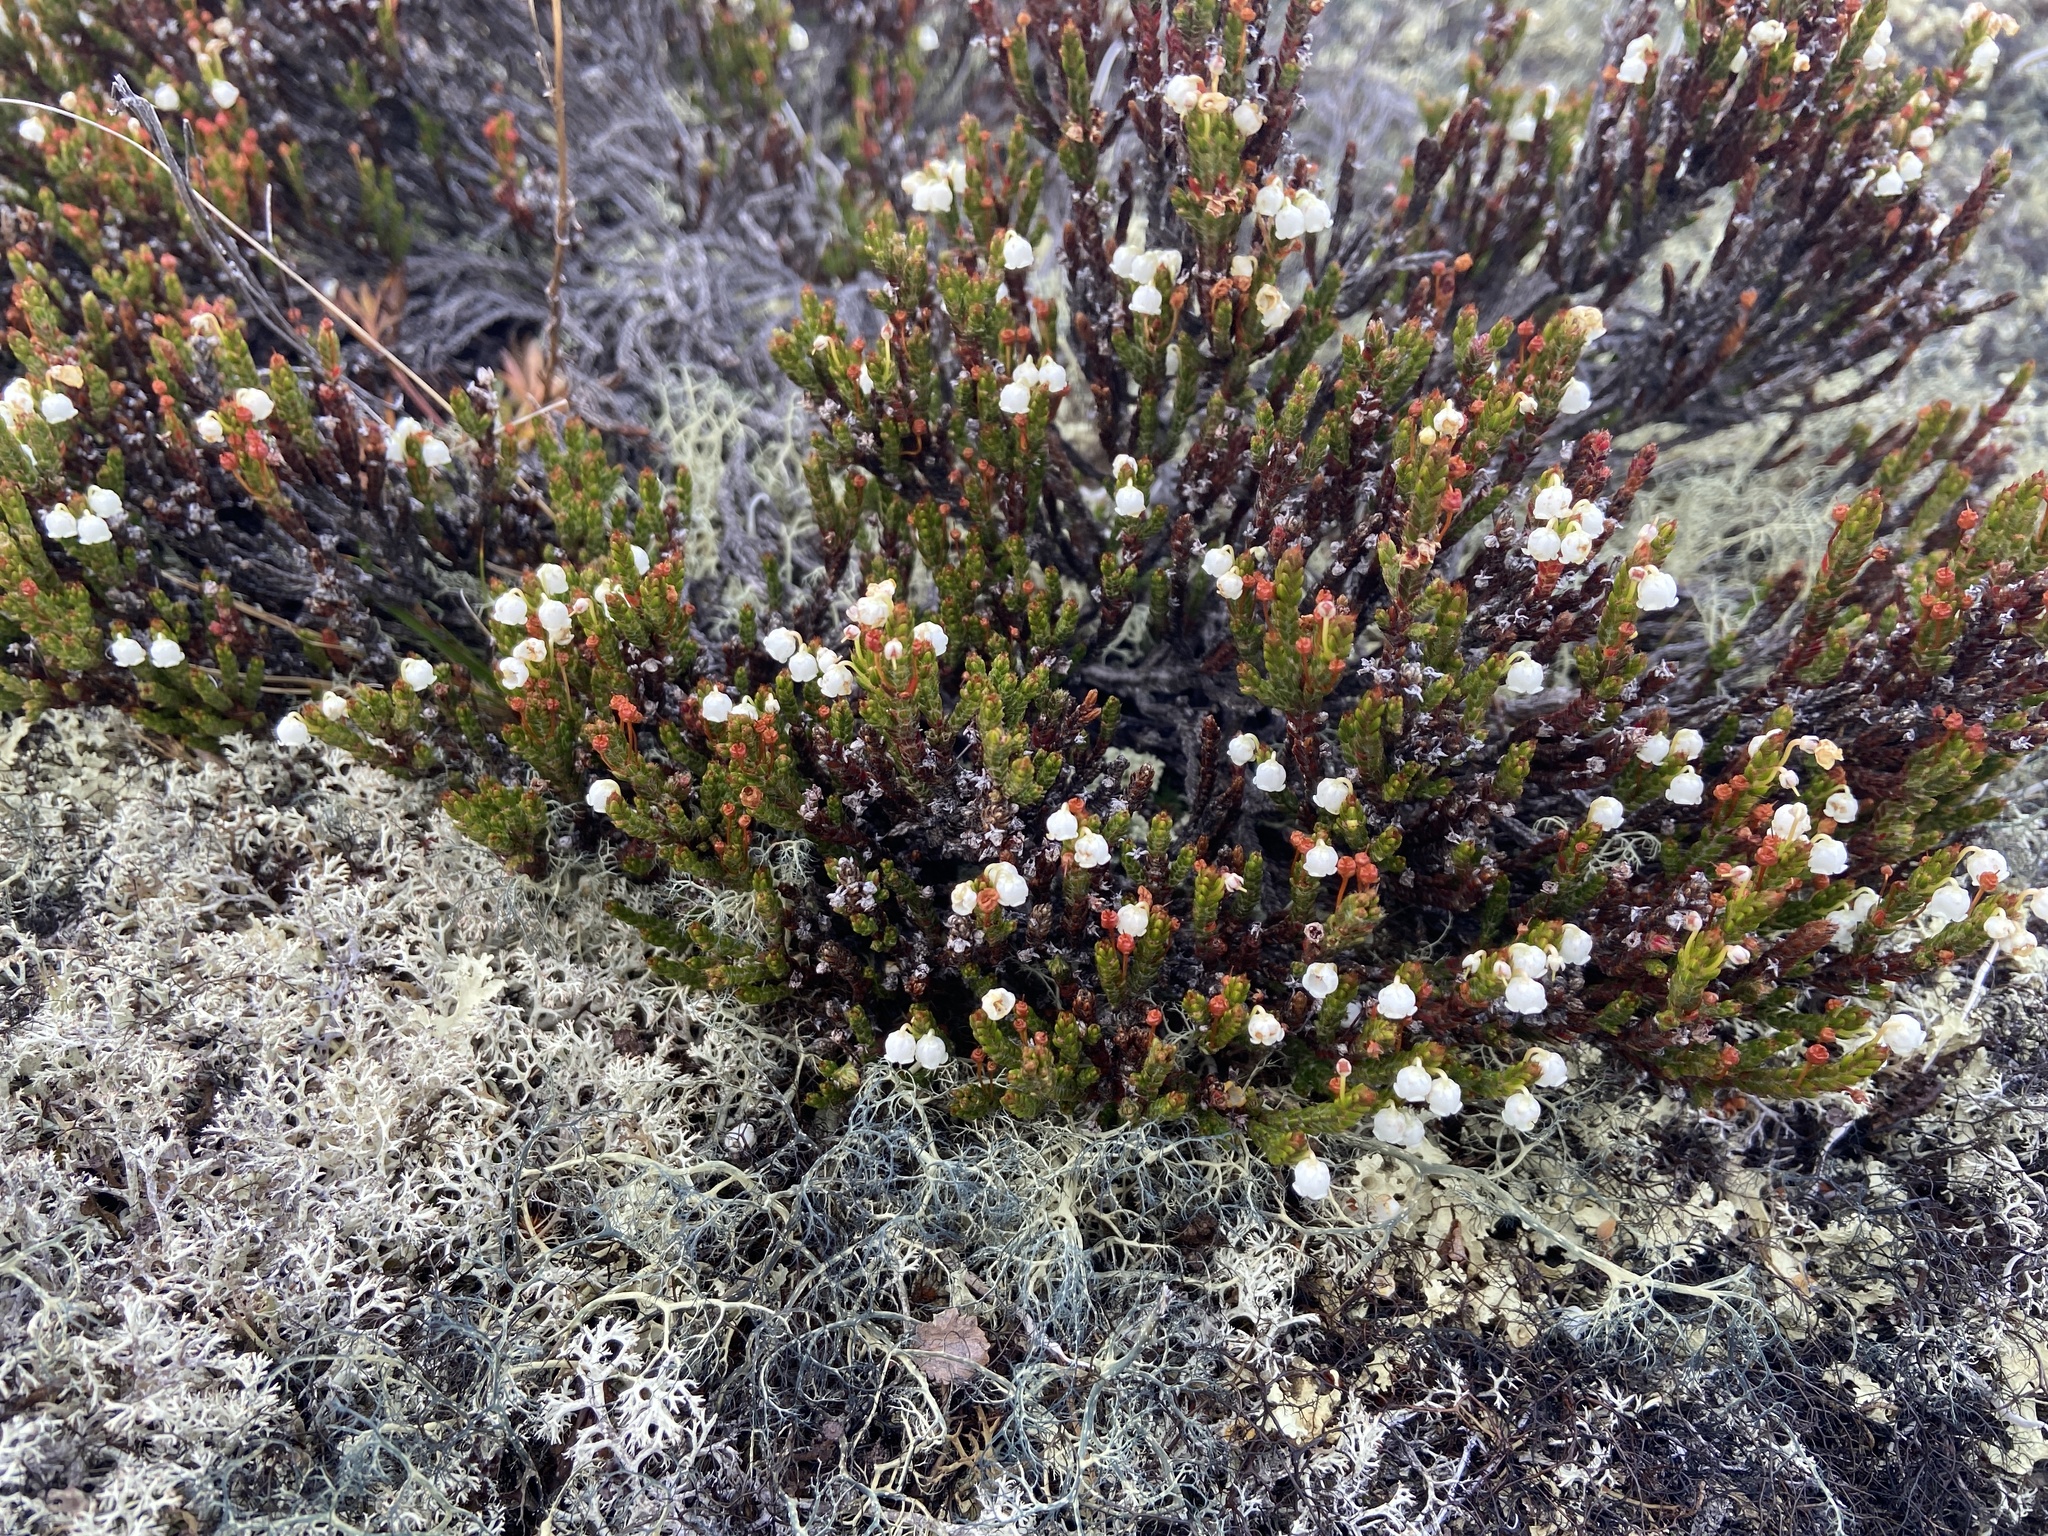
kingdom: Plantae
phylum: Tracheophyta
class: Magnoliopsida
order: Ericales
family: Ericaceae
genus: Cassiope
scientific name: Cassiope ericoides
